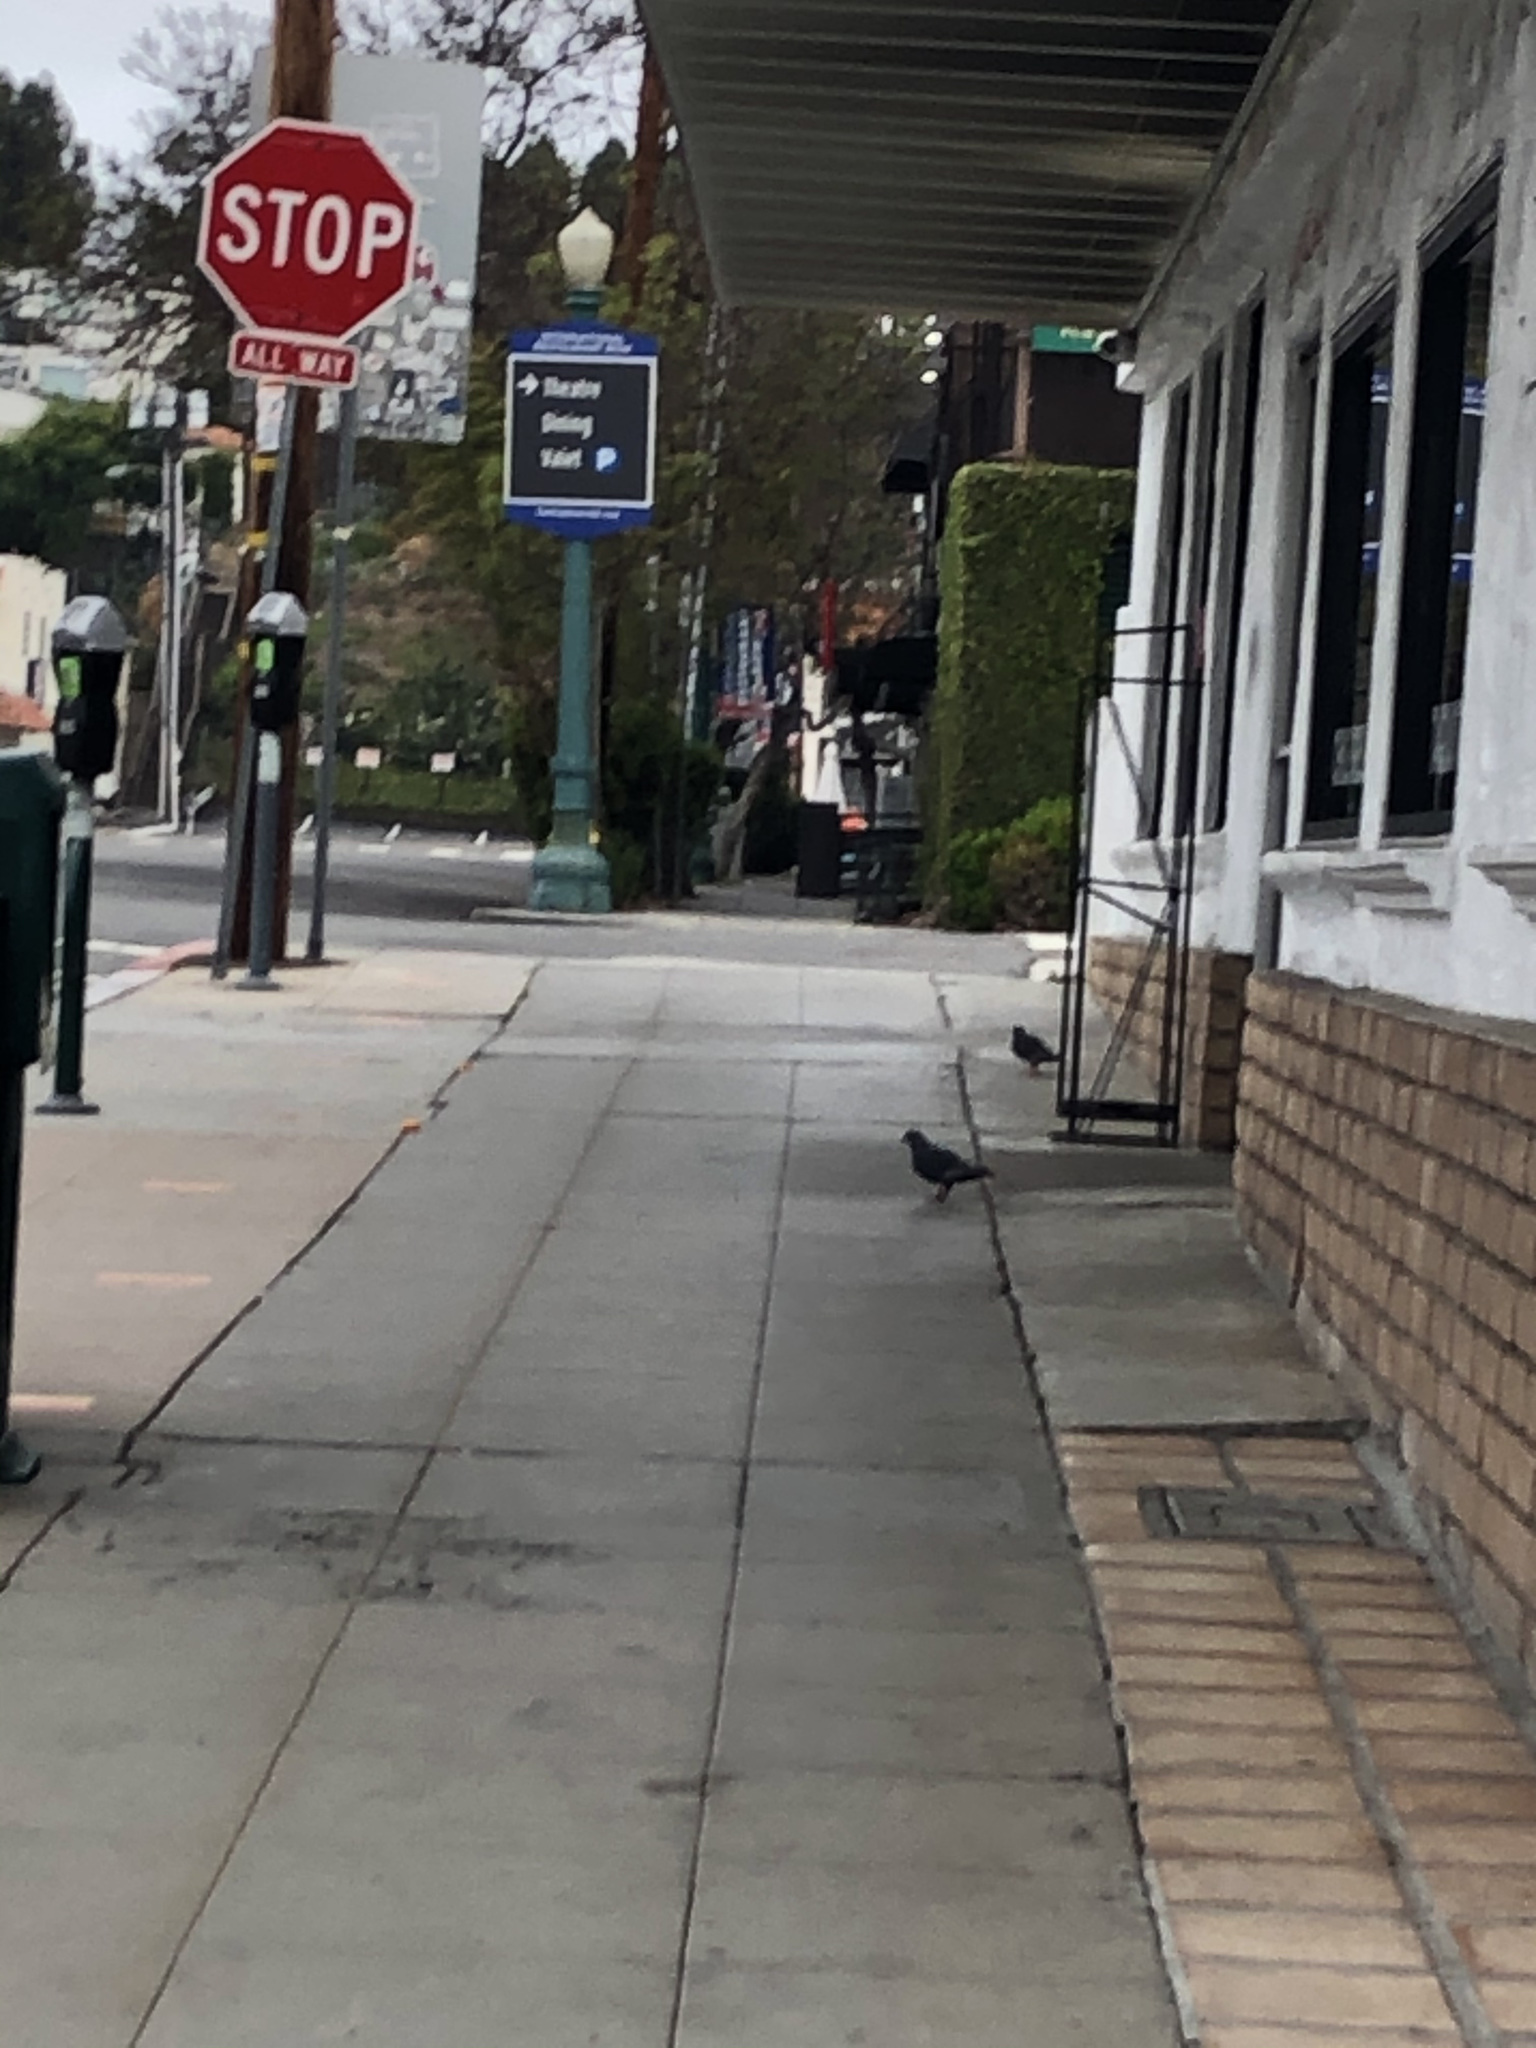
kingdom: Animalia
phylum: Chordata
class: Aves
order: Columbiformes
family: Columbidae
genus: Columba
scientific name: Columba livia
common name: Rock pigeon
